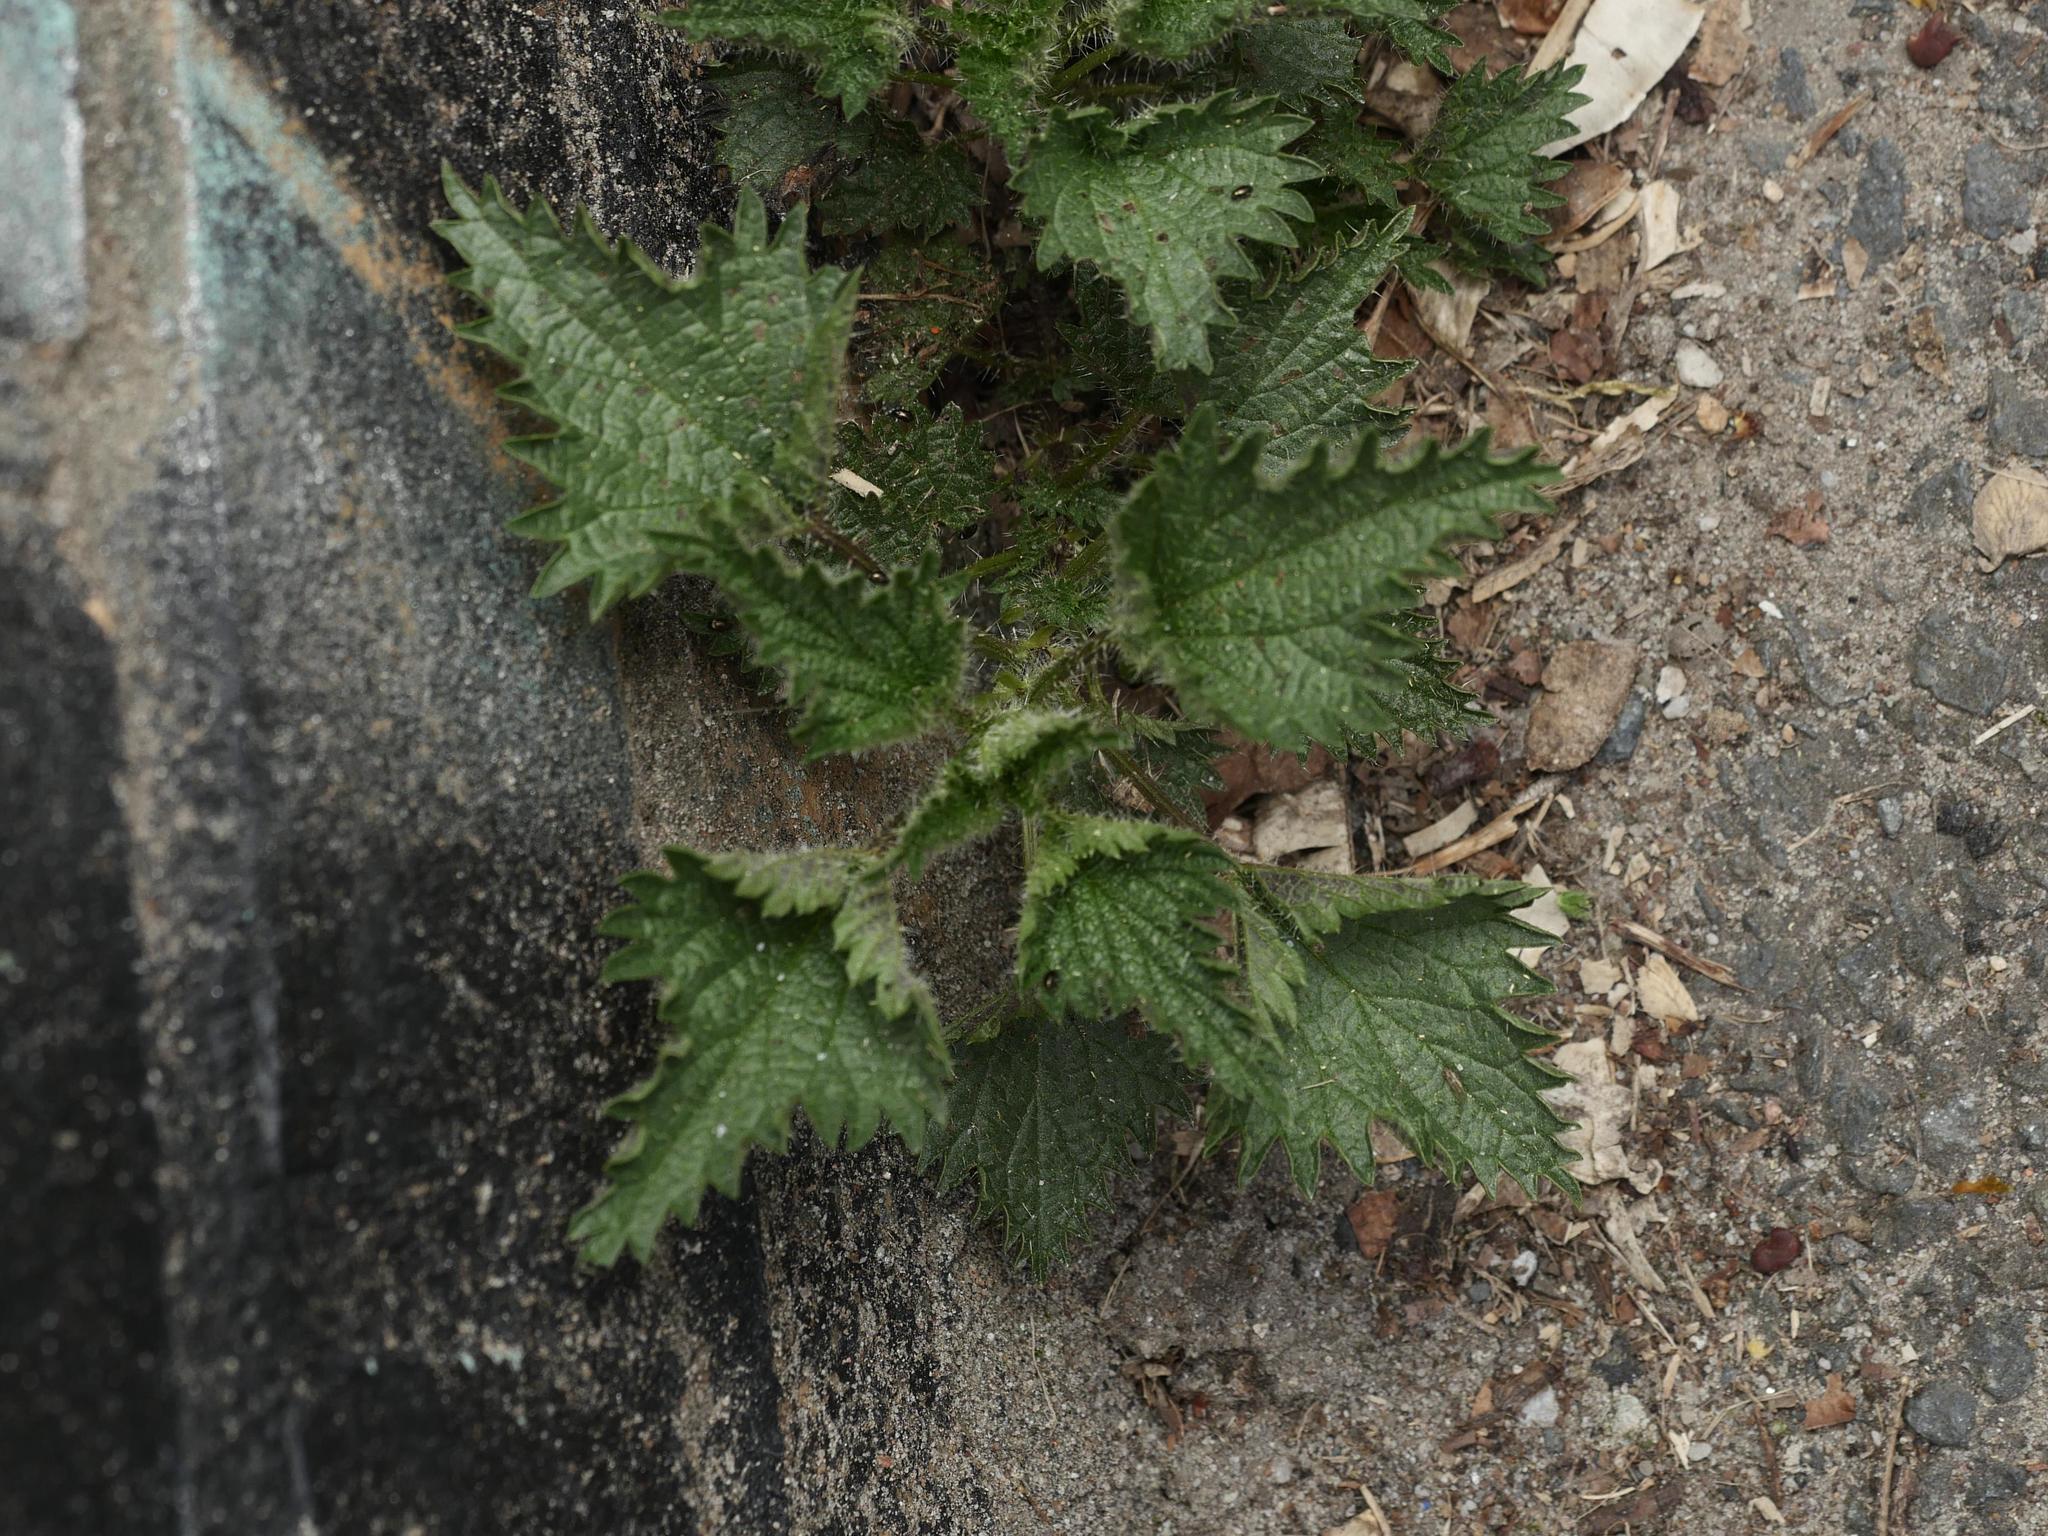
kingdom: Plantae
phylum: Tracheophyta
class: Magnoliopsida
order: Rosales
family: Urticaceae
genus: Urtica
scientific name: Urtica dioica
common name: Common nettle
